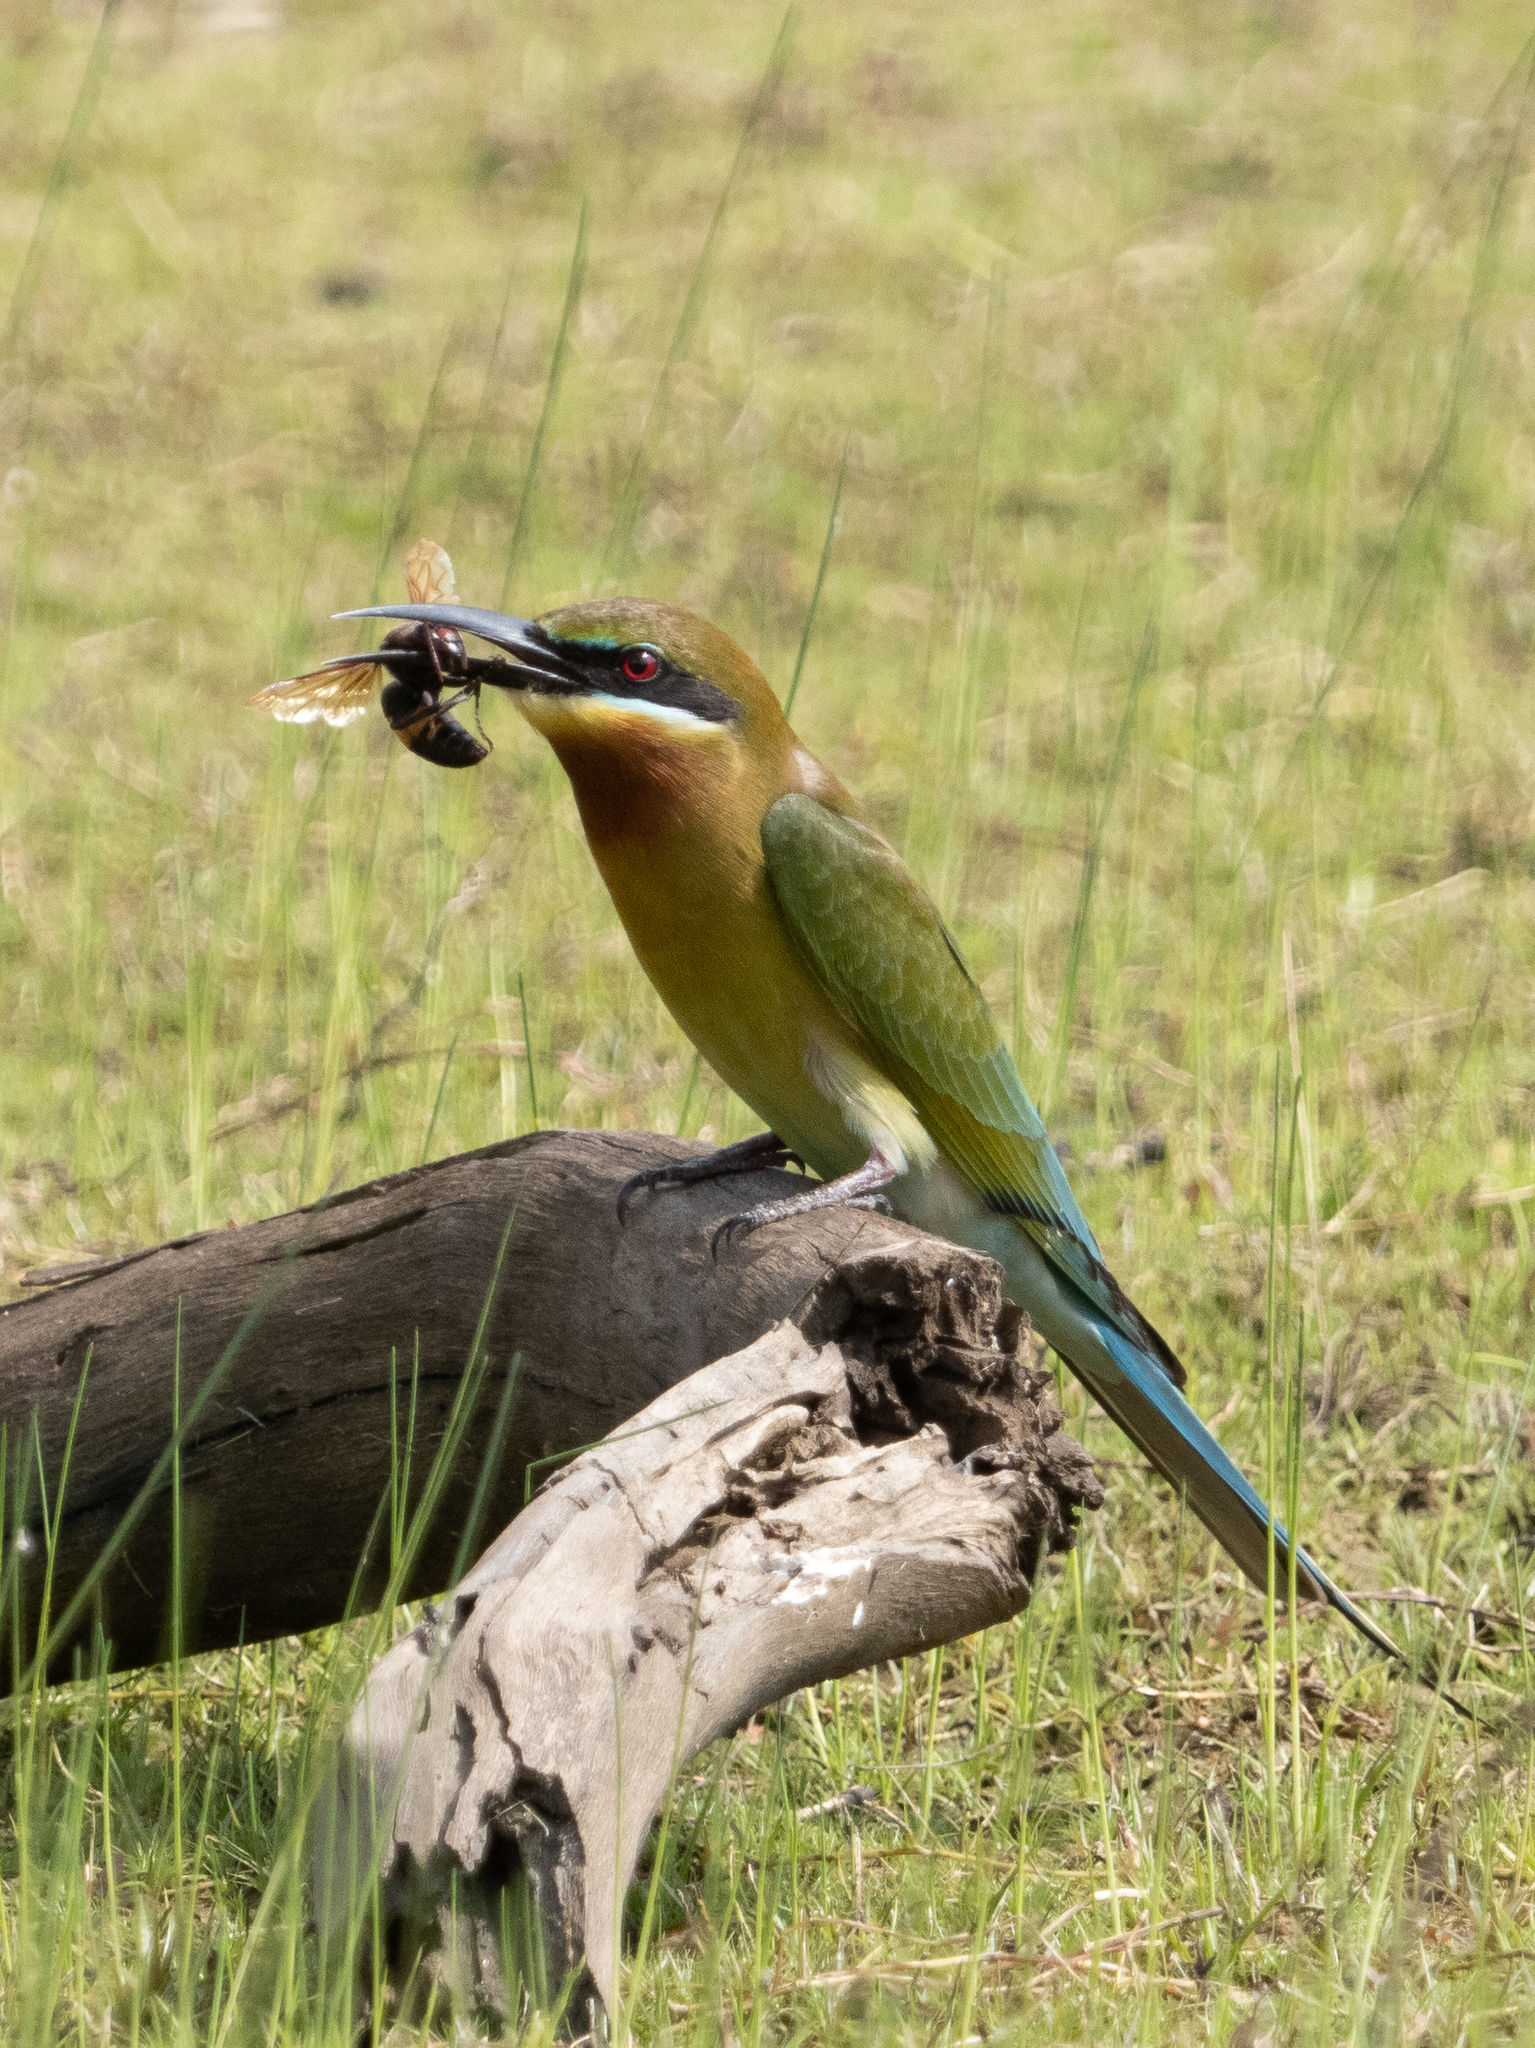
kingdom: Animalia
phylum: Chordata
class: Aves
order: Coraciiformes
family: Meropidae
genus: Merops
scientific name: Merops philippinus
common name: Blue-tailed bee-eater
